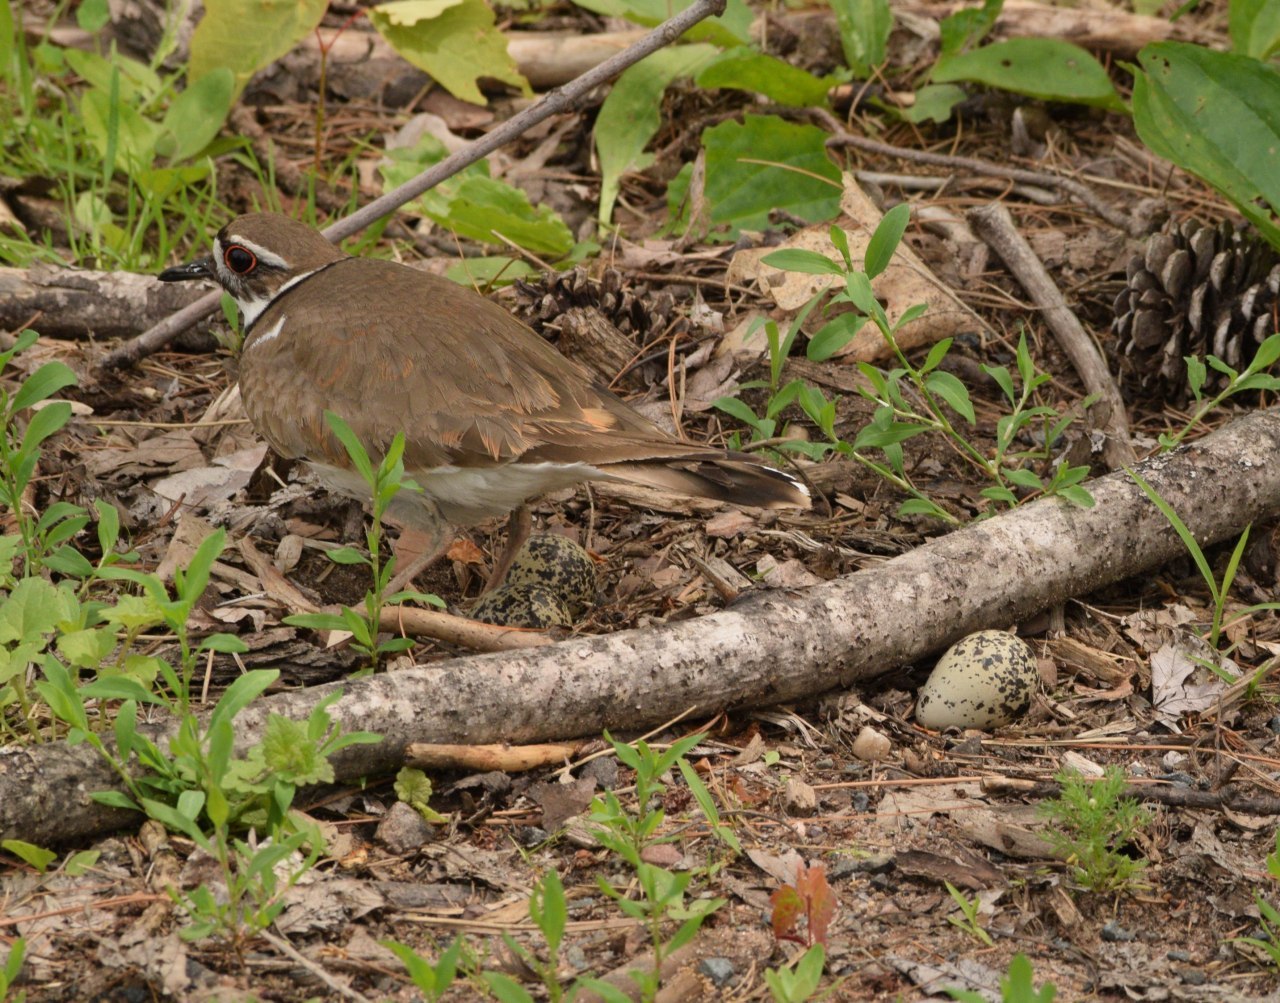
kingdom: Animalia
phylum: Chordata
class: Aves
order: Charadriiformes
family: Charadriidae
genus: Charadrius
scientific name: Charadrius vociferus
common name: Killdeer
